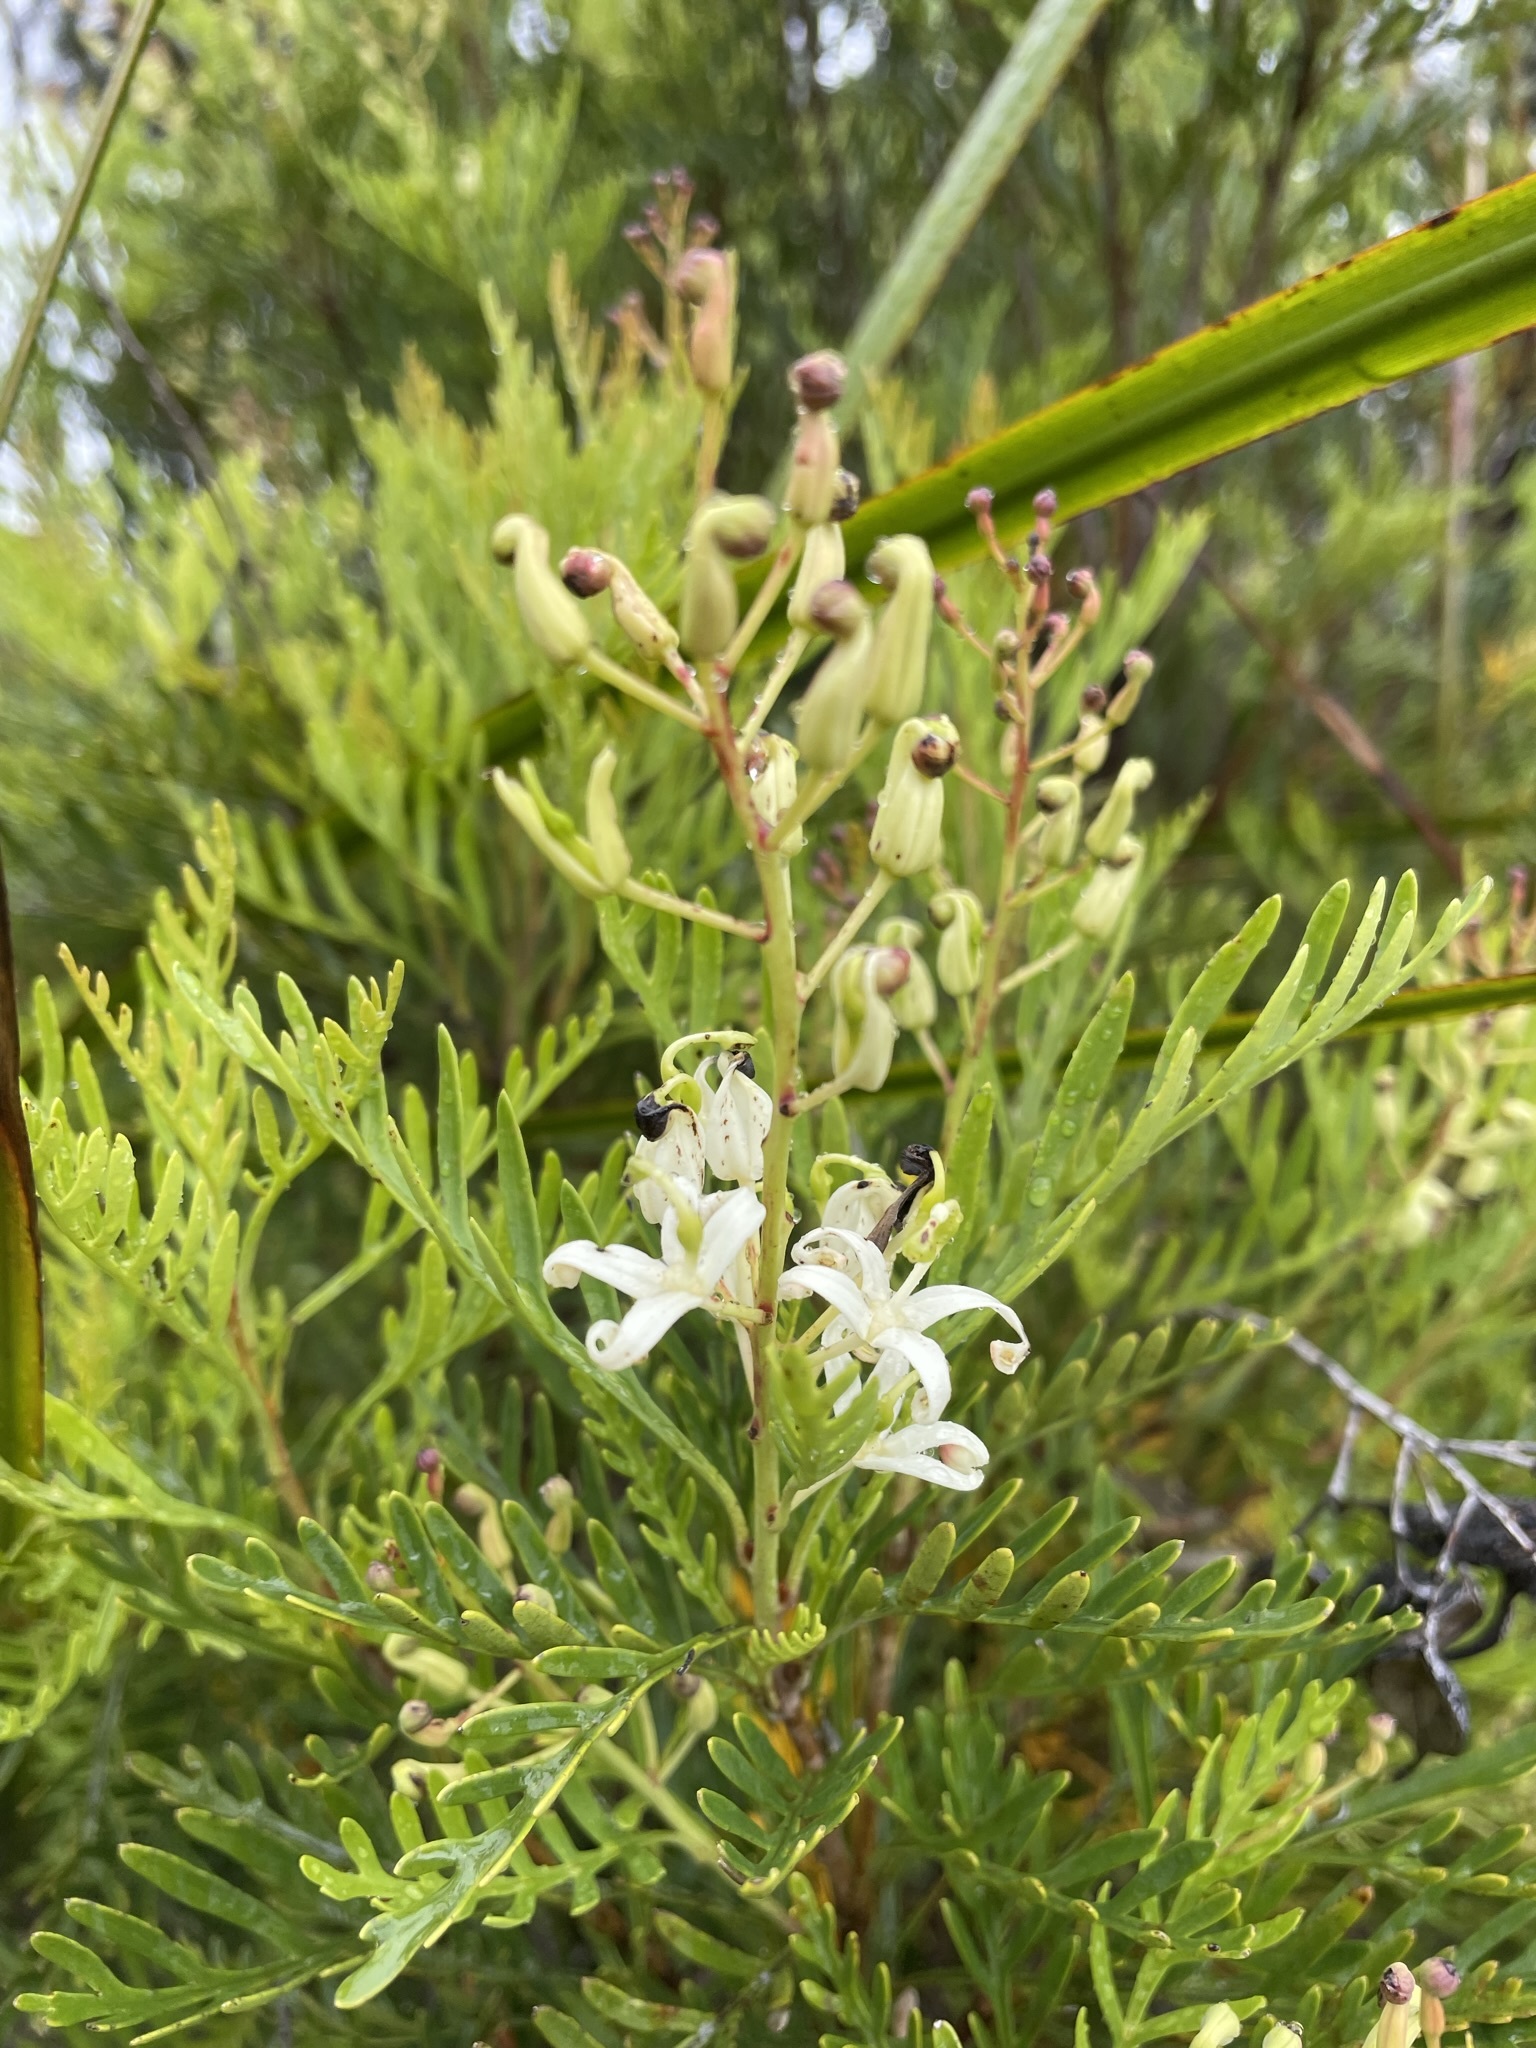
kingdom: Plantae
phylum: Tracheophyta
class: Magnoliopsida
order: Proteales
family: Proteaceae
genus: Lomatia
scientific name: Lomatia tinctoria
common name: Guitar plant
